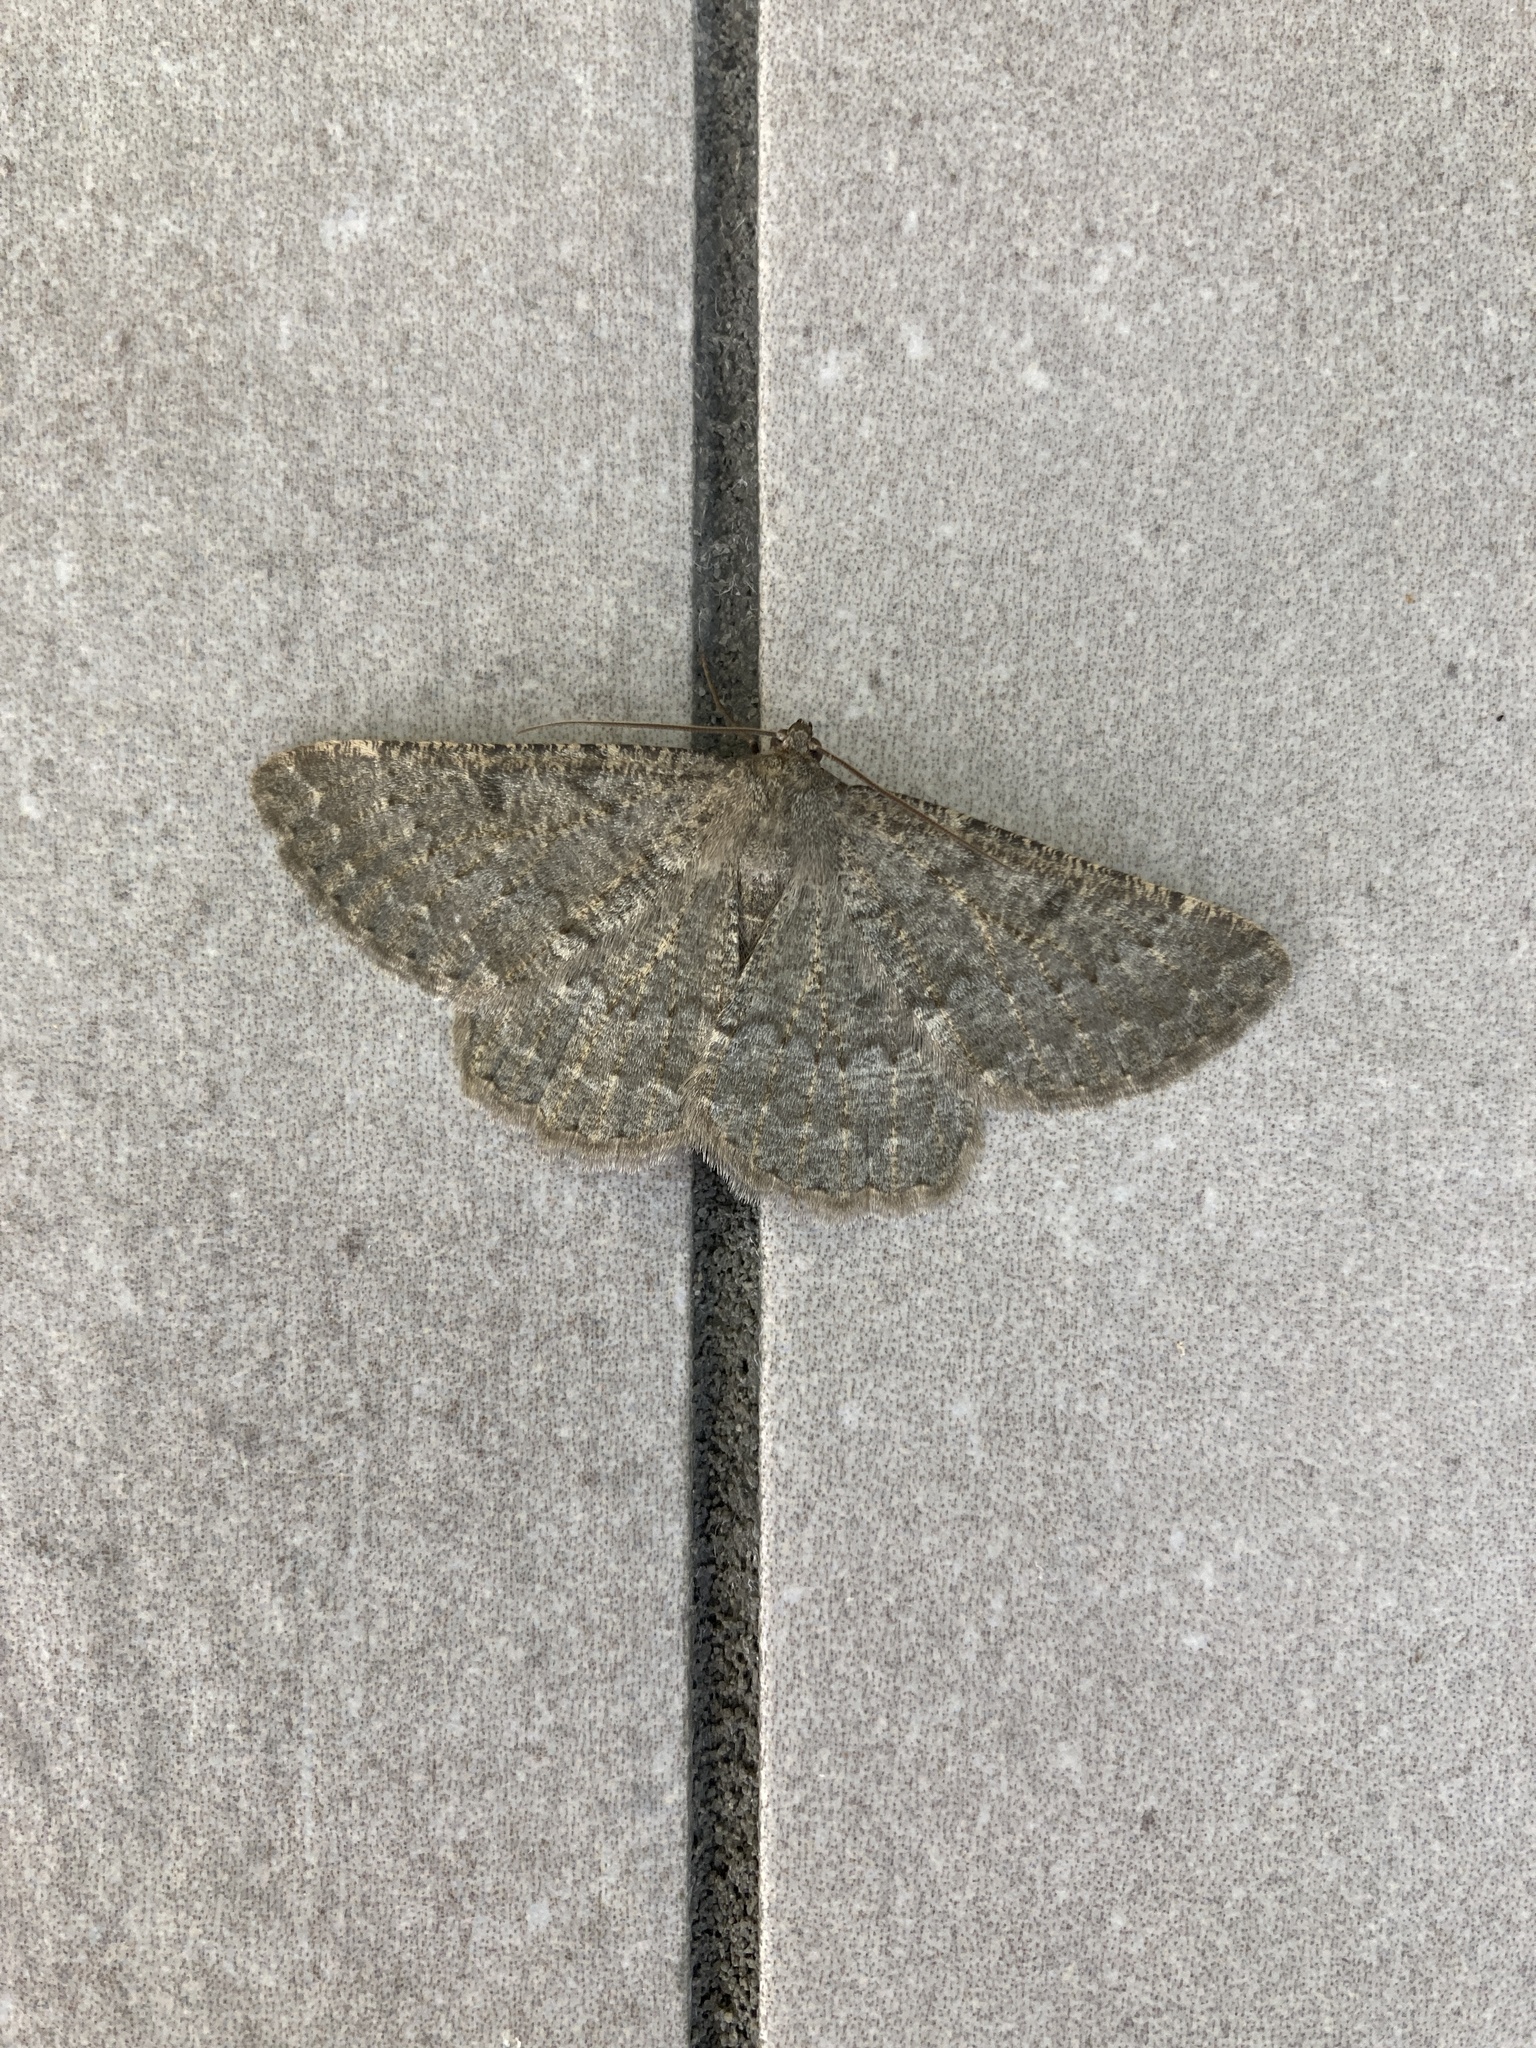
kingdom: Animalia
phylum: Arthropoda
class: Insecta
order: Lepidoptera
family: Geometridae
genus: Gnophos
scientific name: Gnophos obfuscata
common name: Scottish annulet
